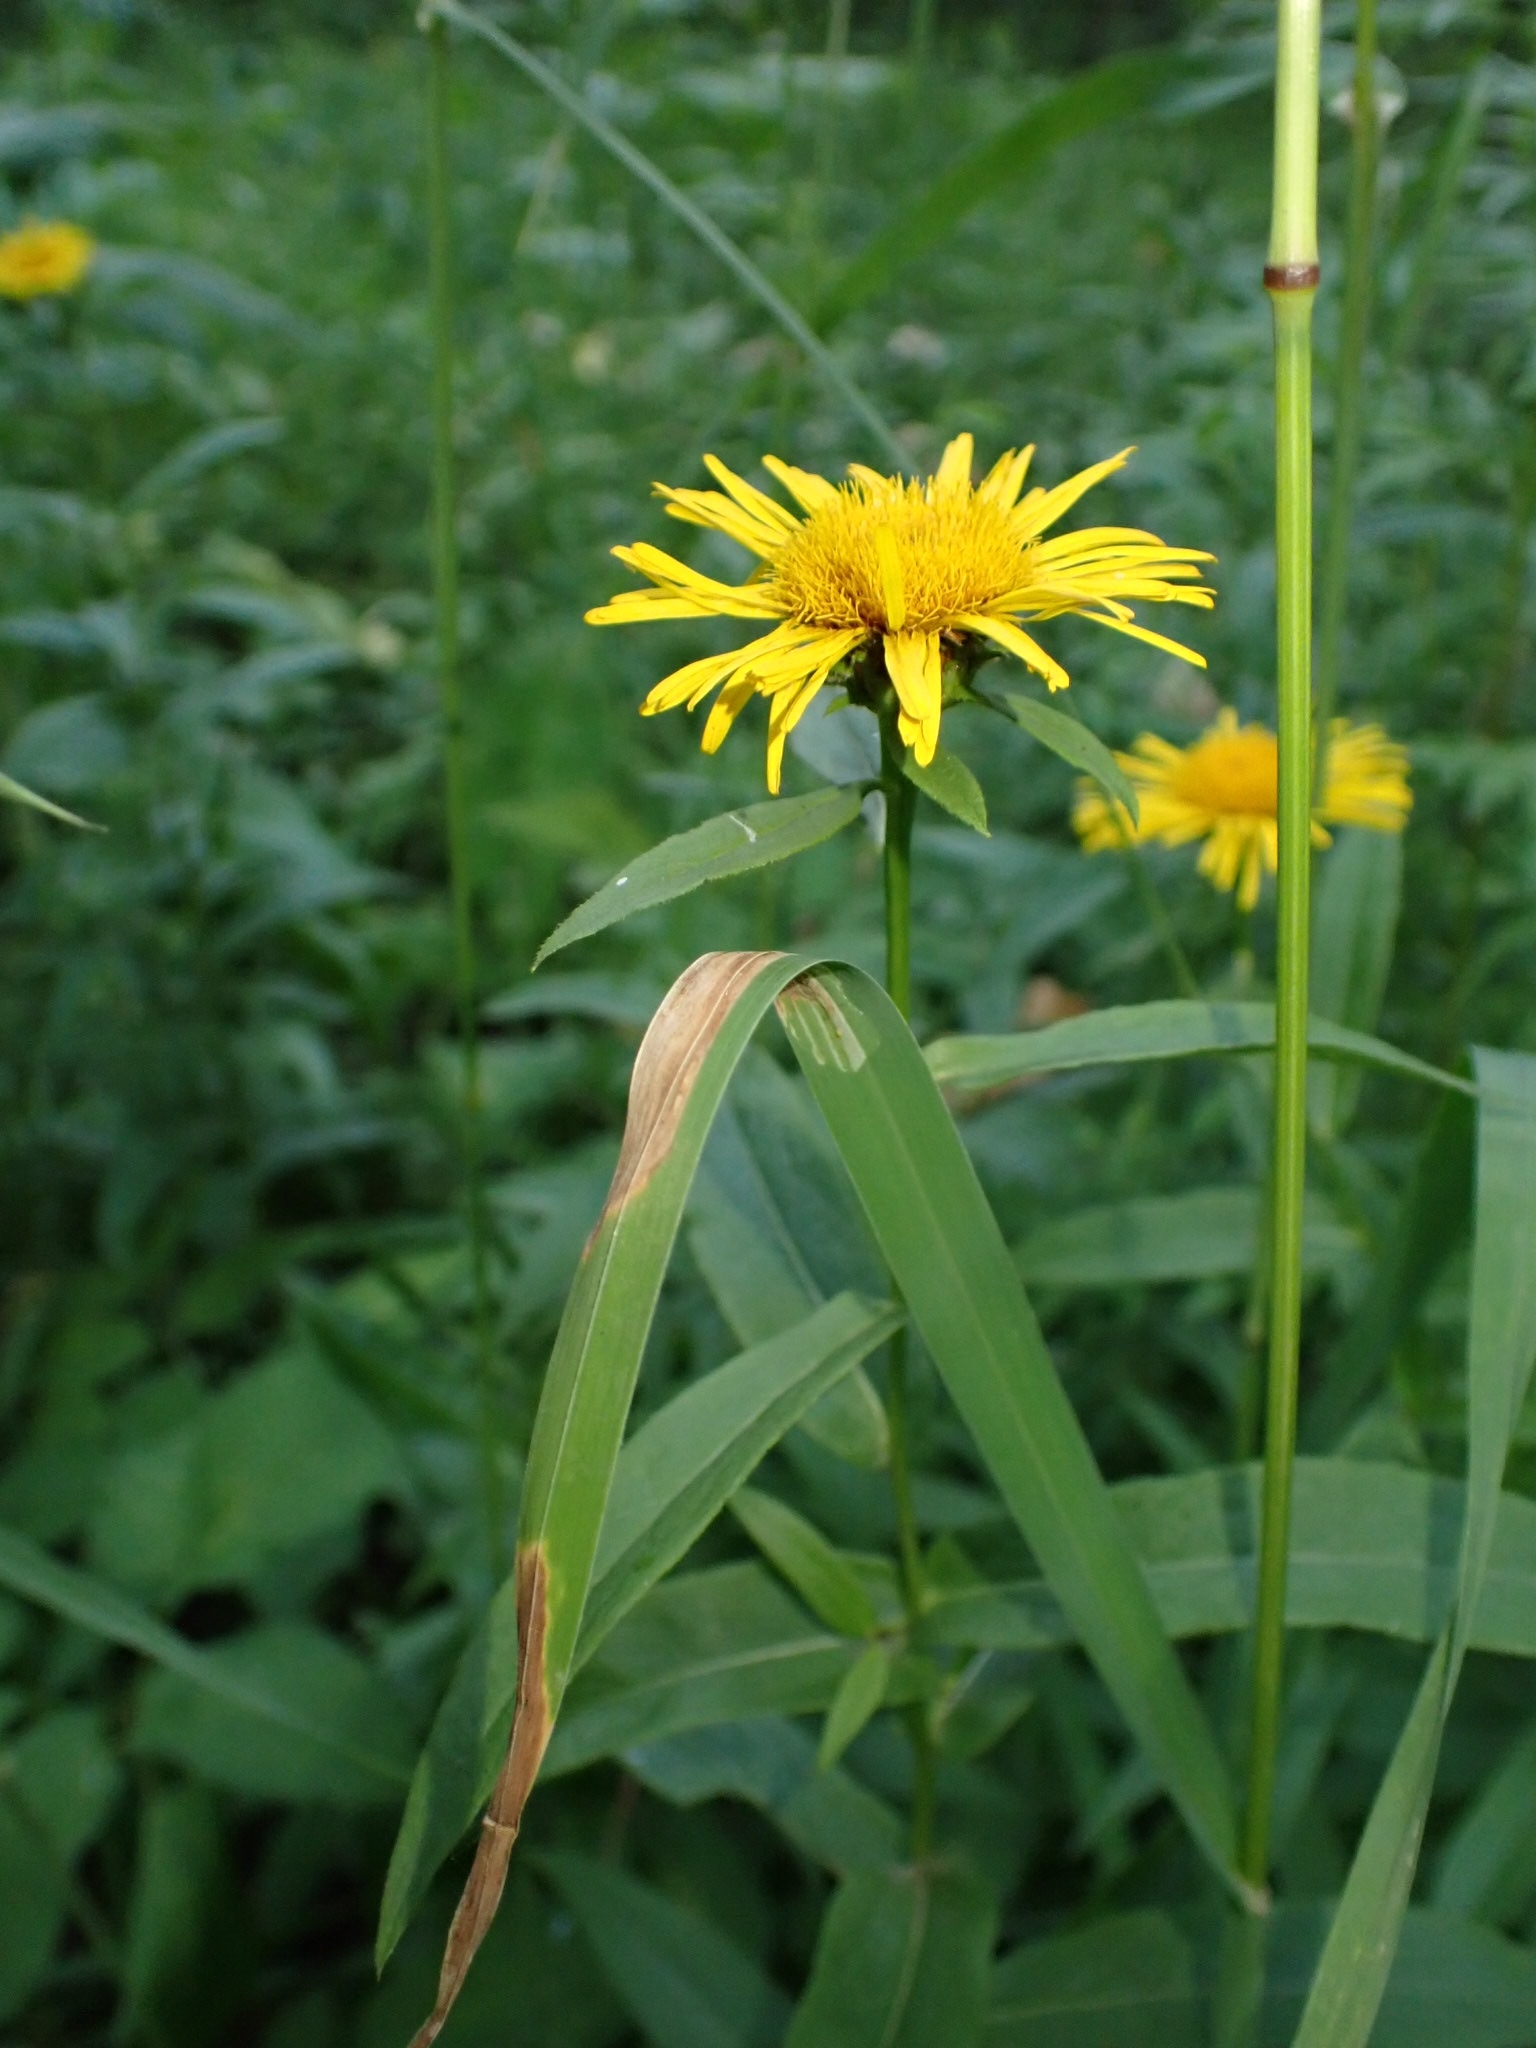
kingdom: Plantae
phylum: Tracheophyta
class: Magnoliopsida
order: Asterales
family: Asteraceae
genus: Pentanema
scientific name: Pentanema salicinum
